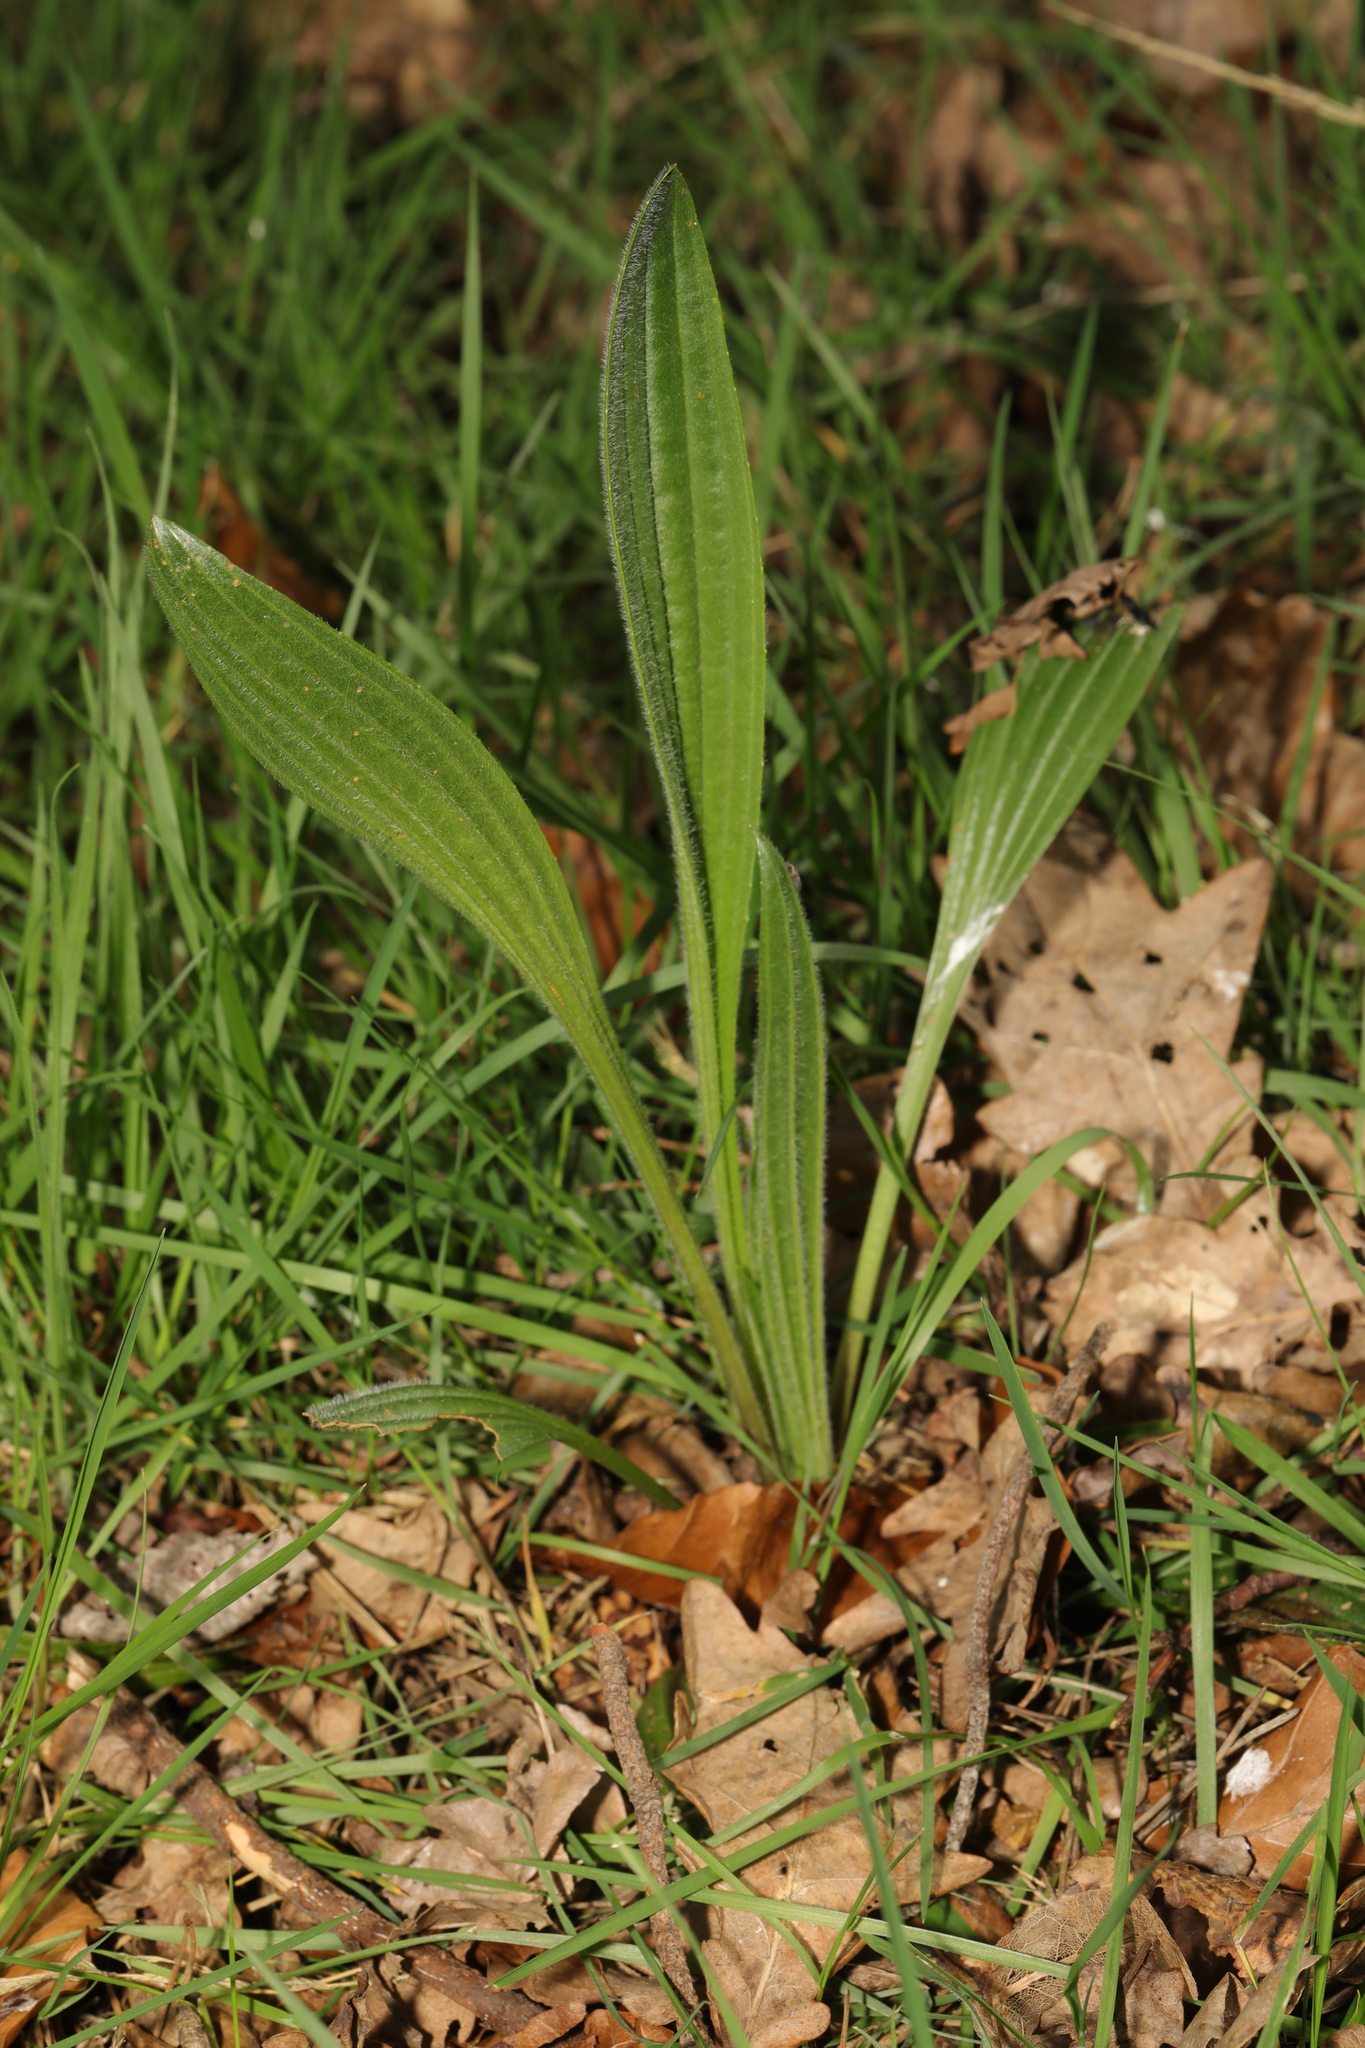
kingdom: Plantae
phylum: Tracheophyta
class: Magnoliopsida
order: Lamiales
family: Plantaginaceae
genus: Plantago
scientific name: Plantago lanceolata
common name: Ribwort plantain
